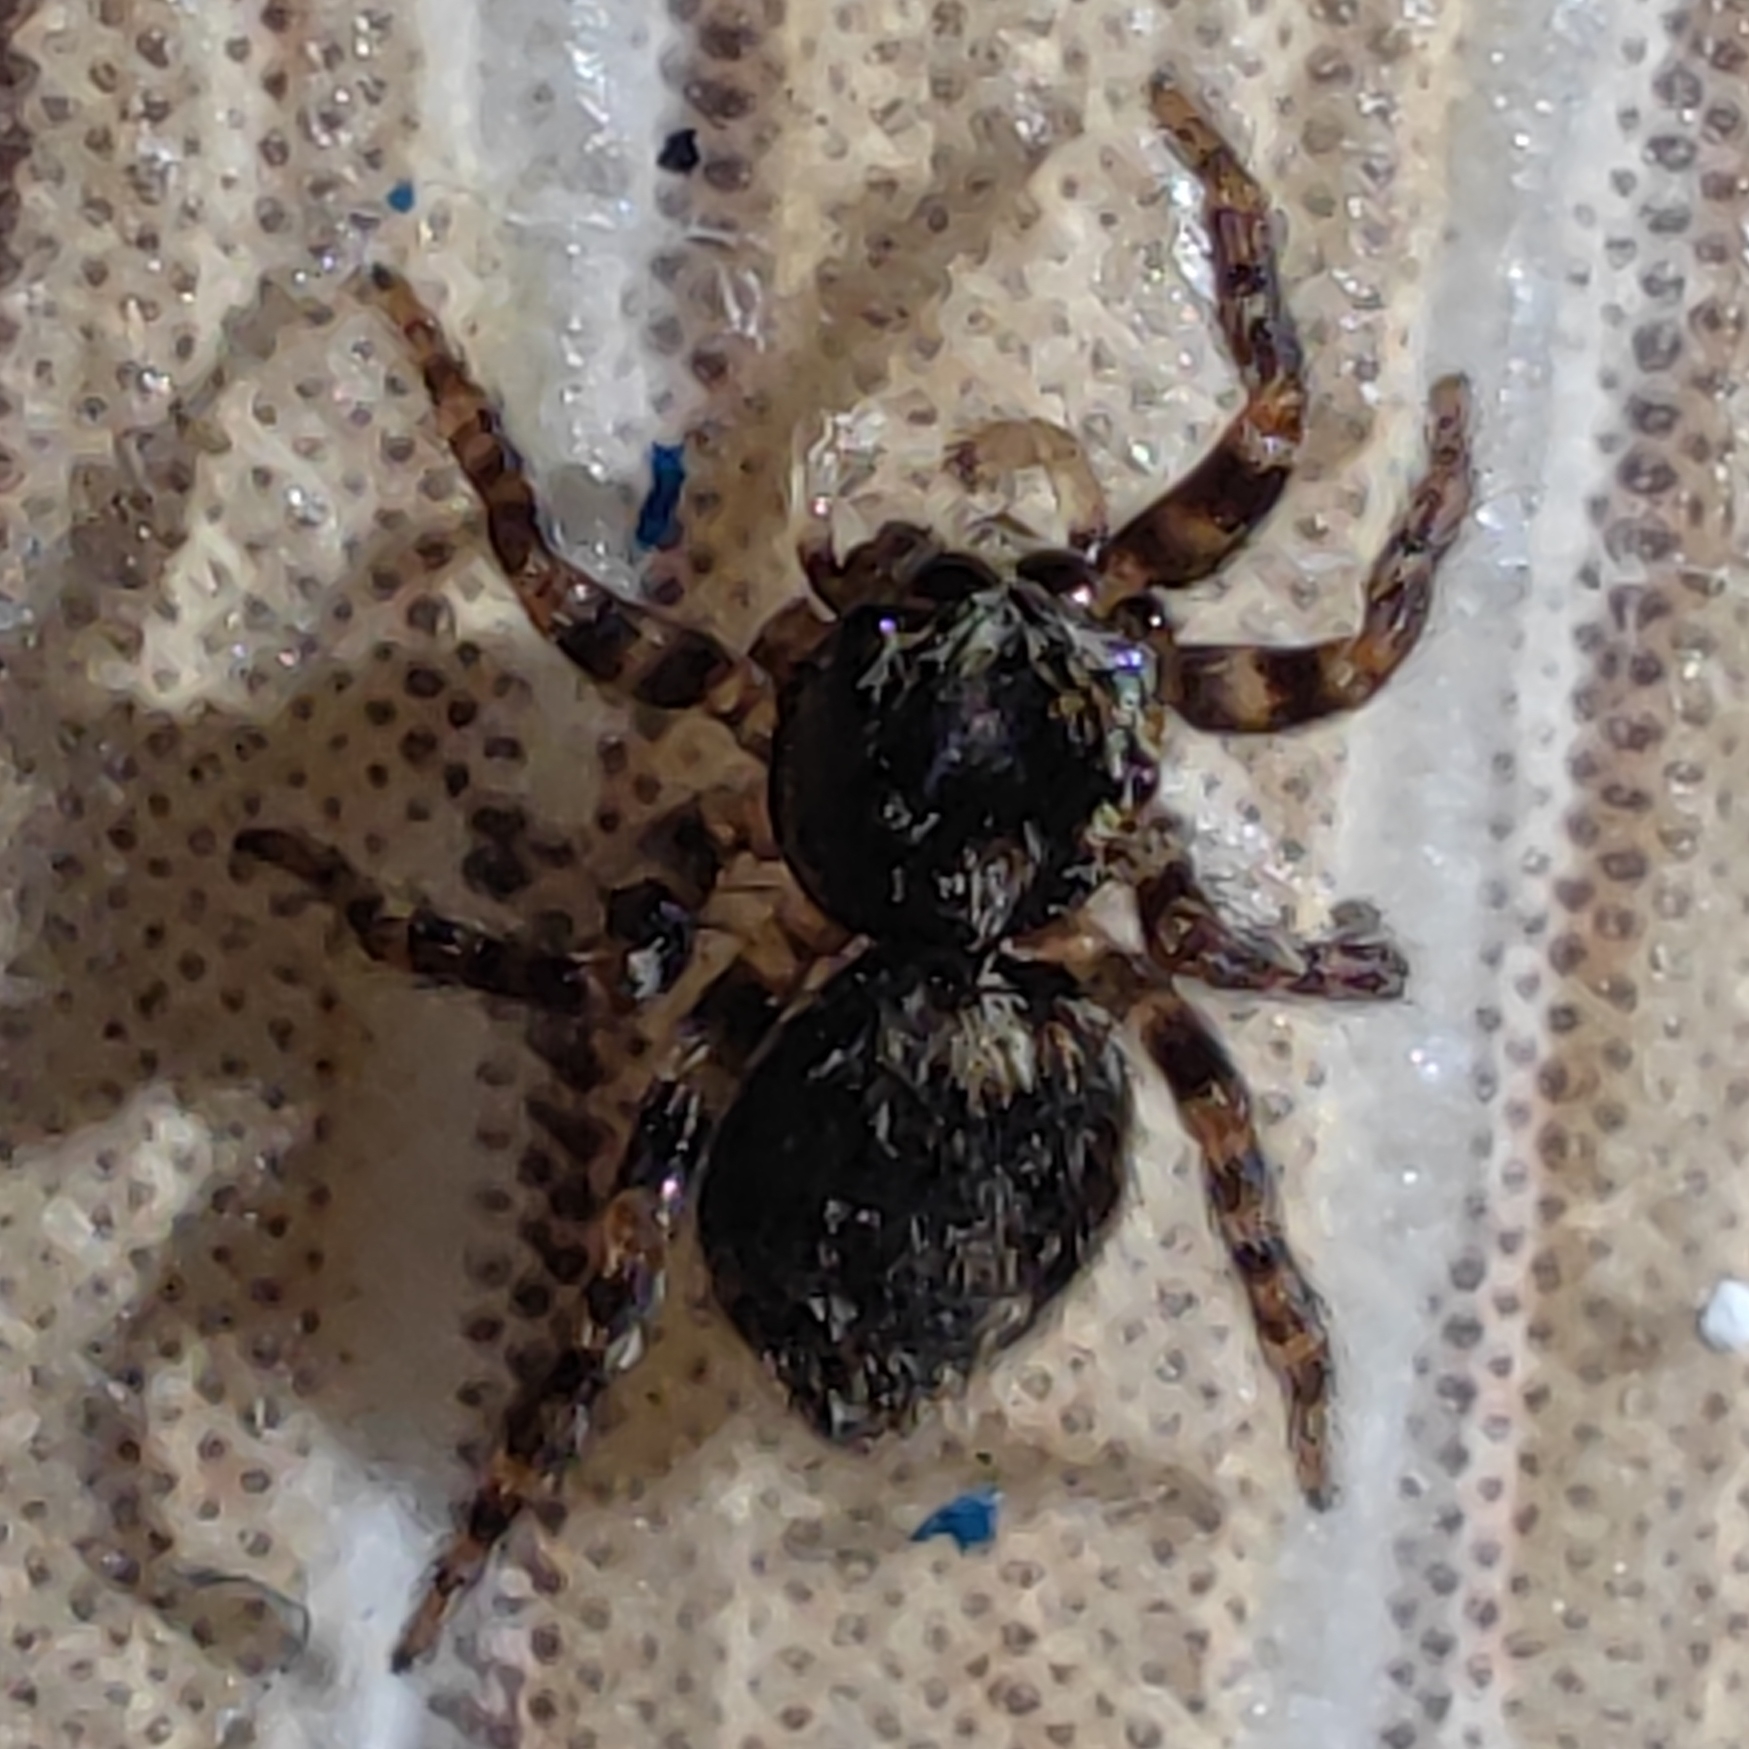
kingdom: Animalia
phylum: Arthropoda
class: Arachnida
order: Araneae
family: Salticidae
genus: Pseudeuophrys
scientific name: Pseudeuophrys lanigera
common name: Jumping spider
